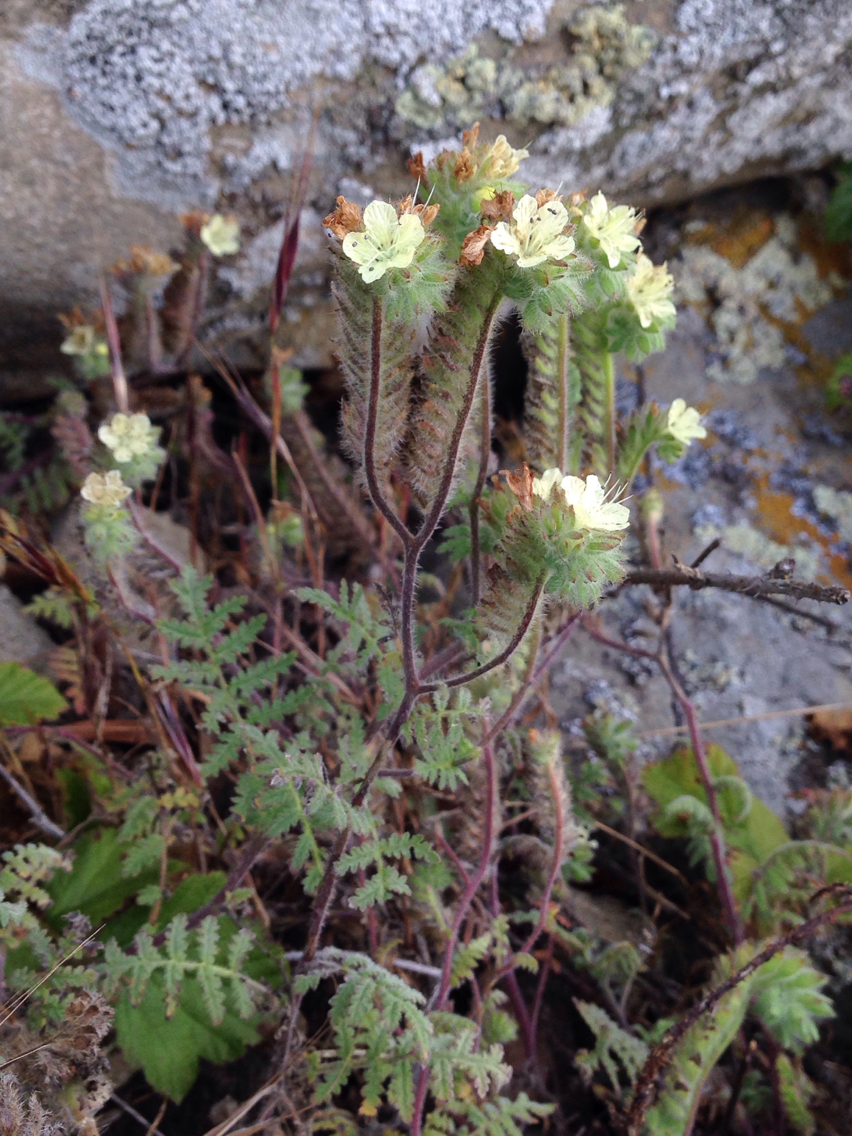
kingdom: Plantae
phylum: Tracheophyta
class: Magnoliopsida
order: Boraginales
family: Hydrophyllaceae
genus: Phacelia
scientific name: Phacelia distans
